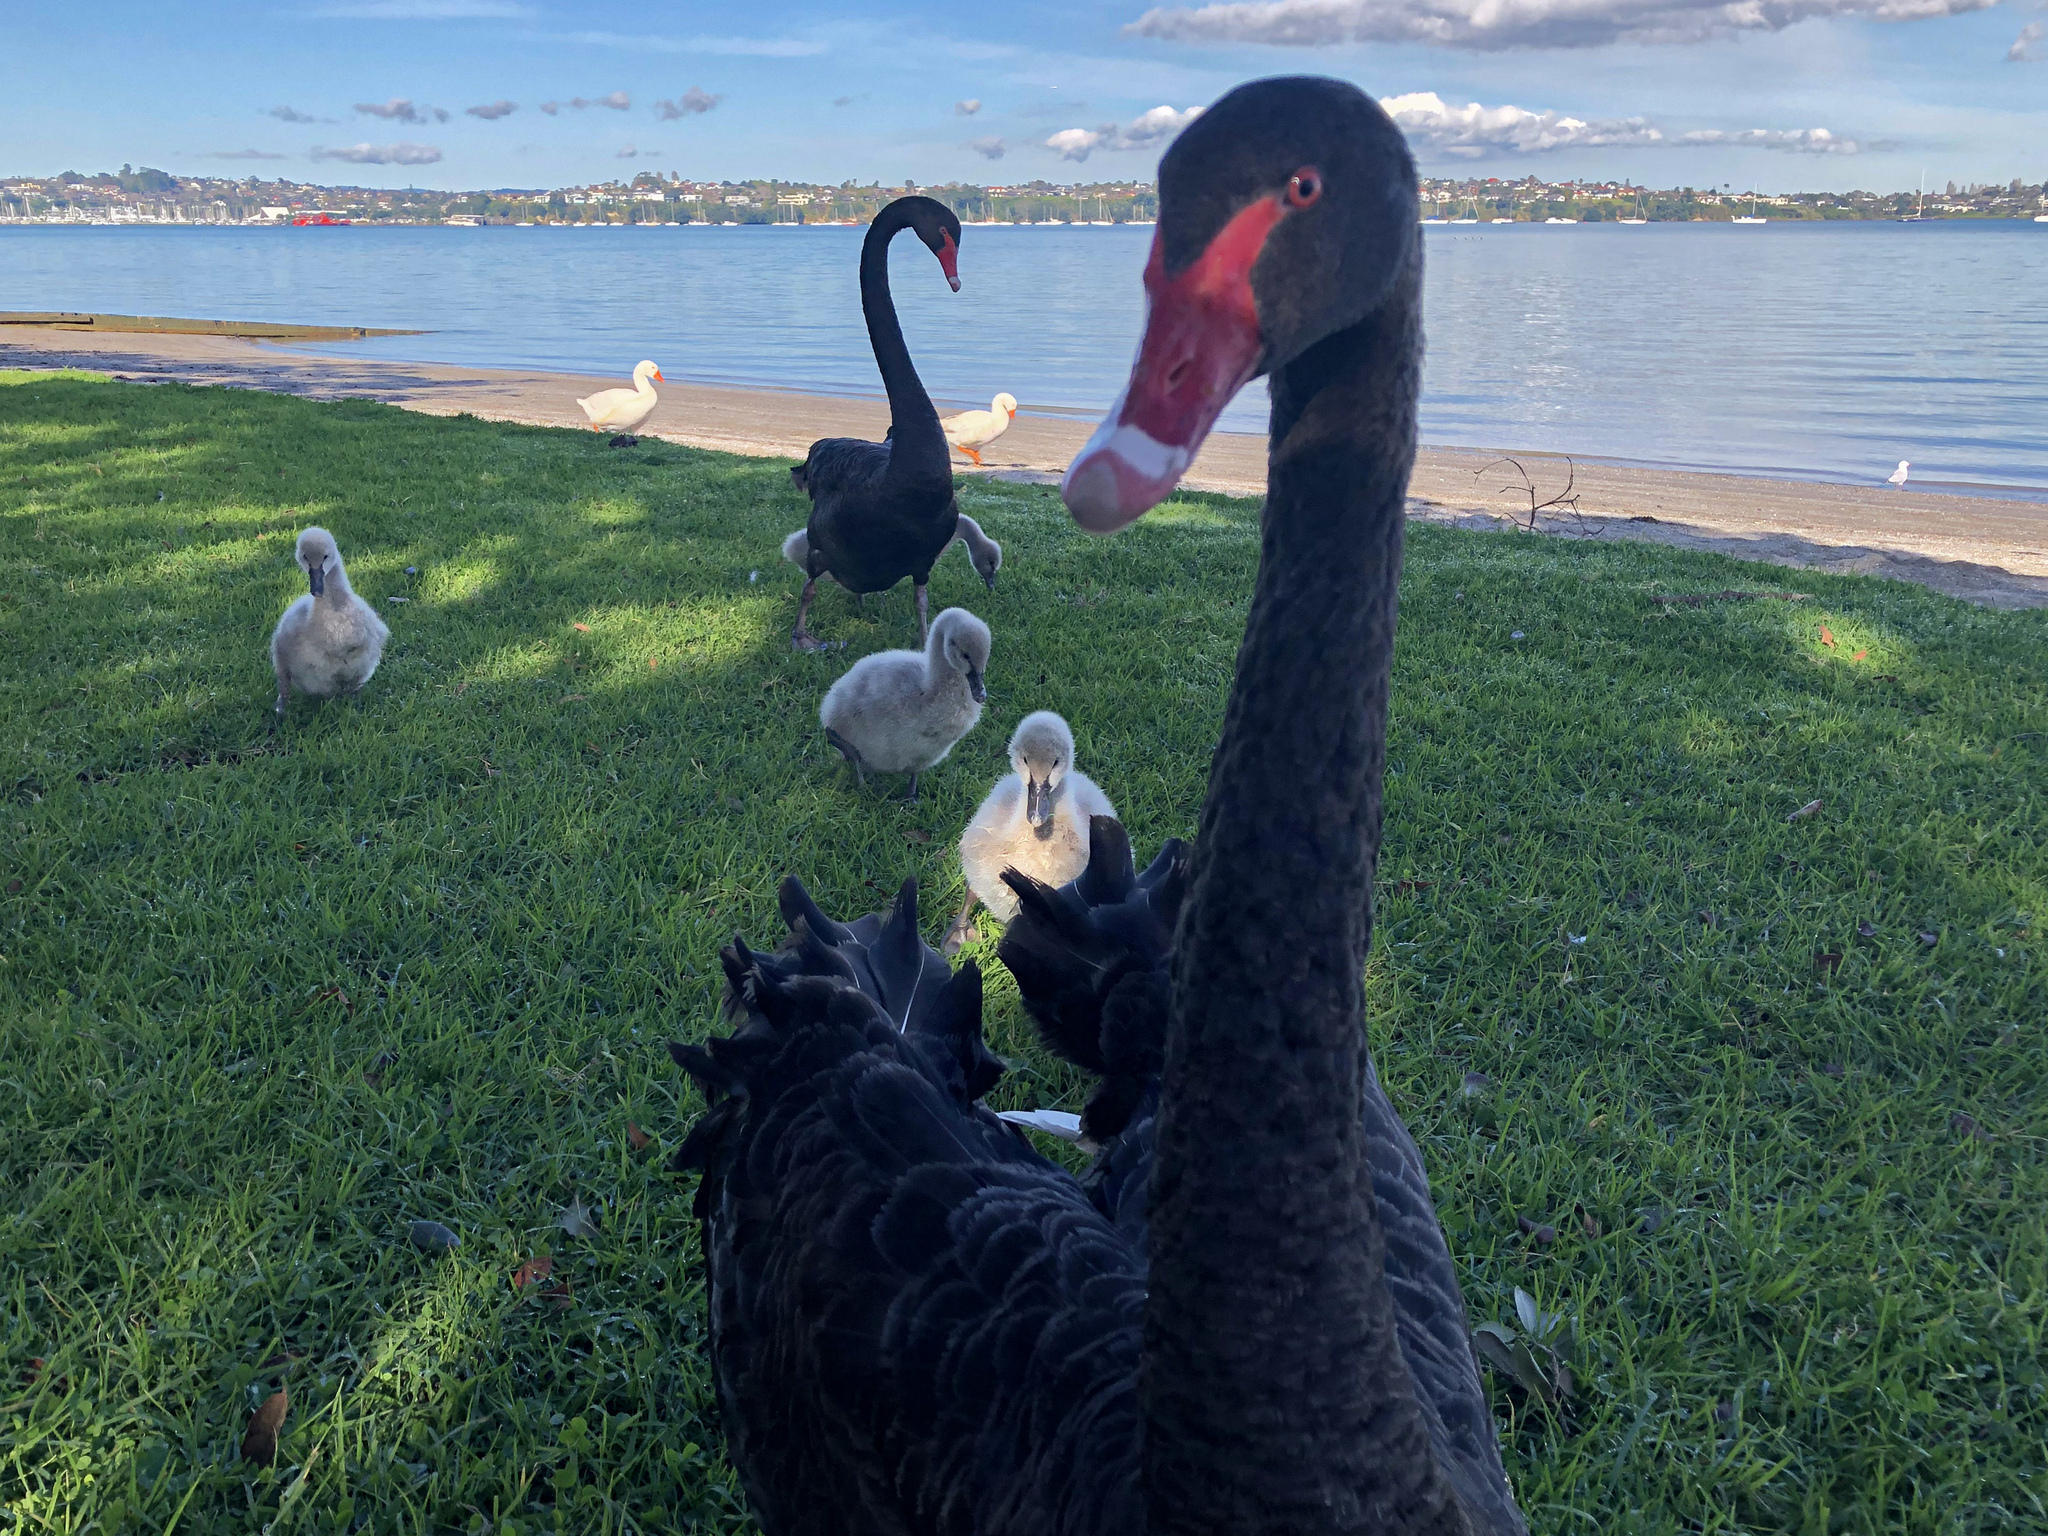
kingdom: Animalia
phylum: Chordata
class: Aves
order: Anseriformes
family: Anatidae
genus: Cygnus
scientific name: Cygnus atratus
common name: Black swan
